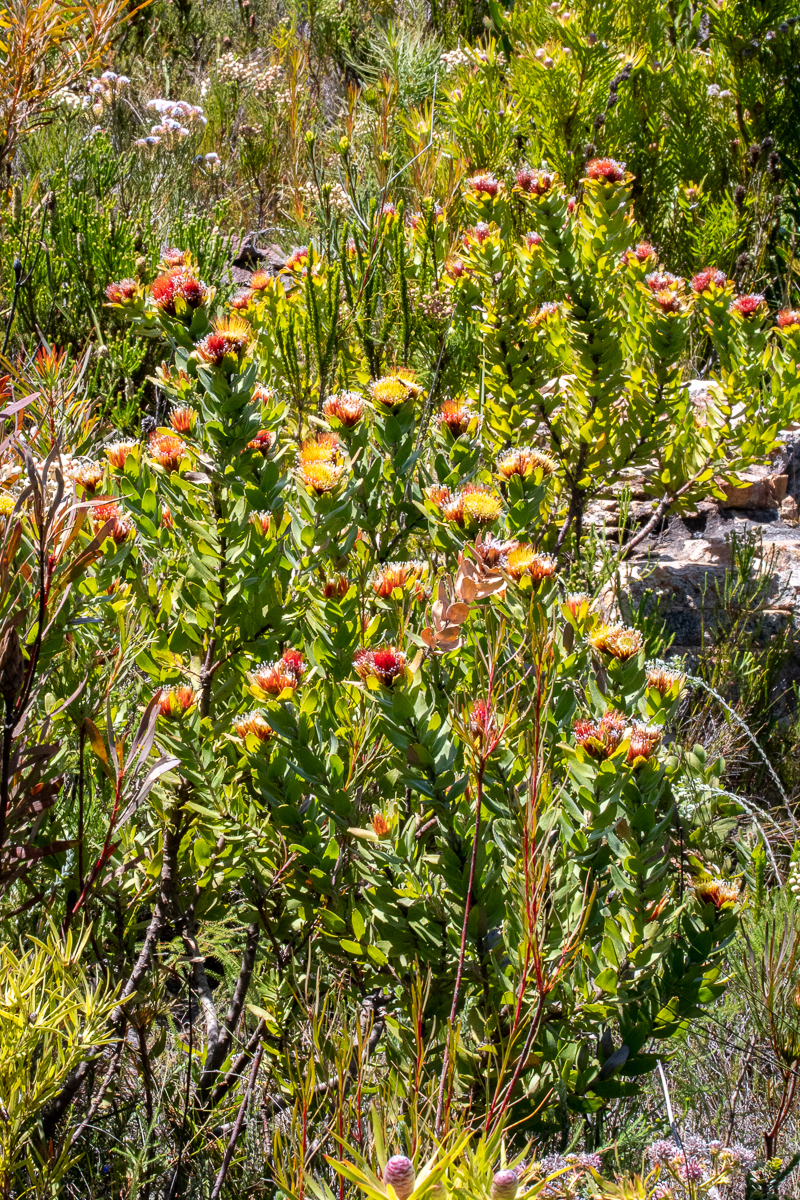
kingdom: Plantae
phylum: Tracheophyta
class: Magnoliopsida
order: Proteales
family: Proteaceae
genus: Leucospermum
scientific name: Leucospermum oleifolium
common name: Matches
